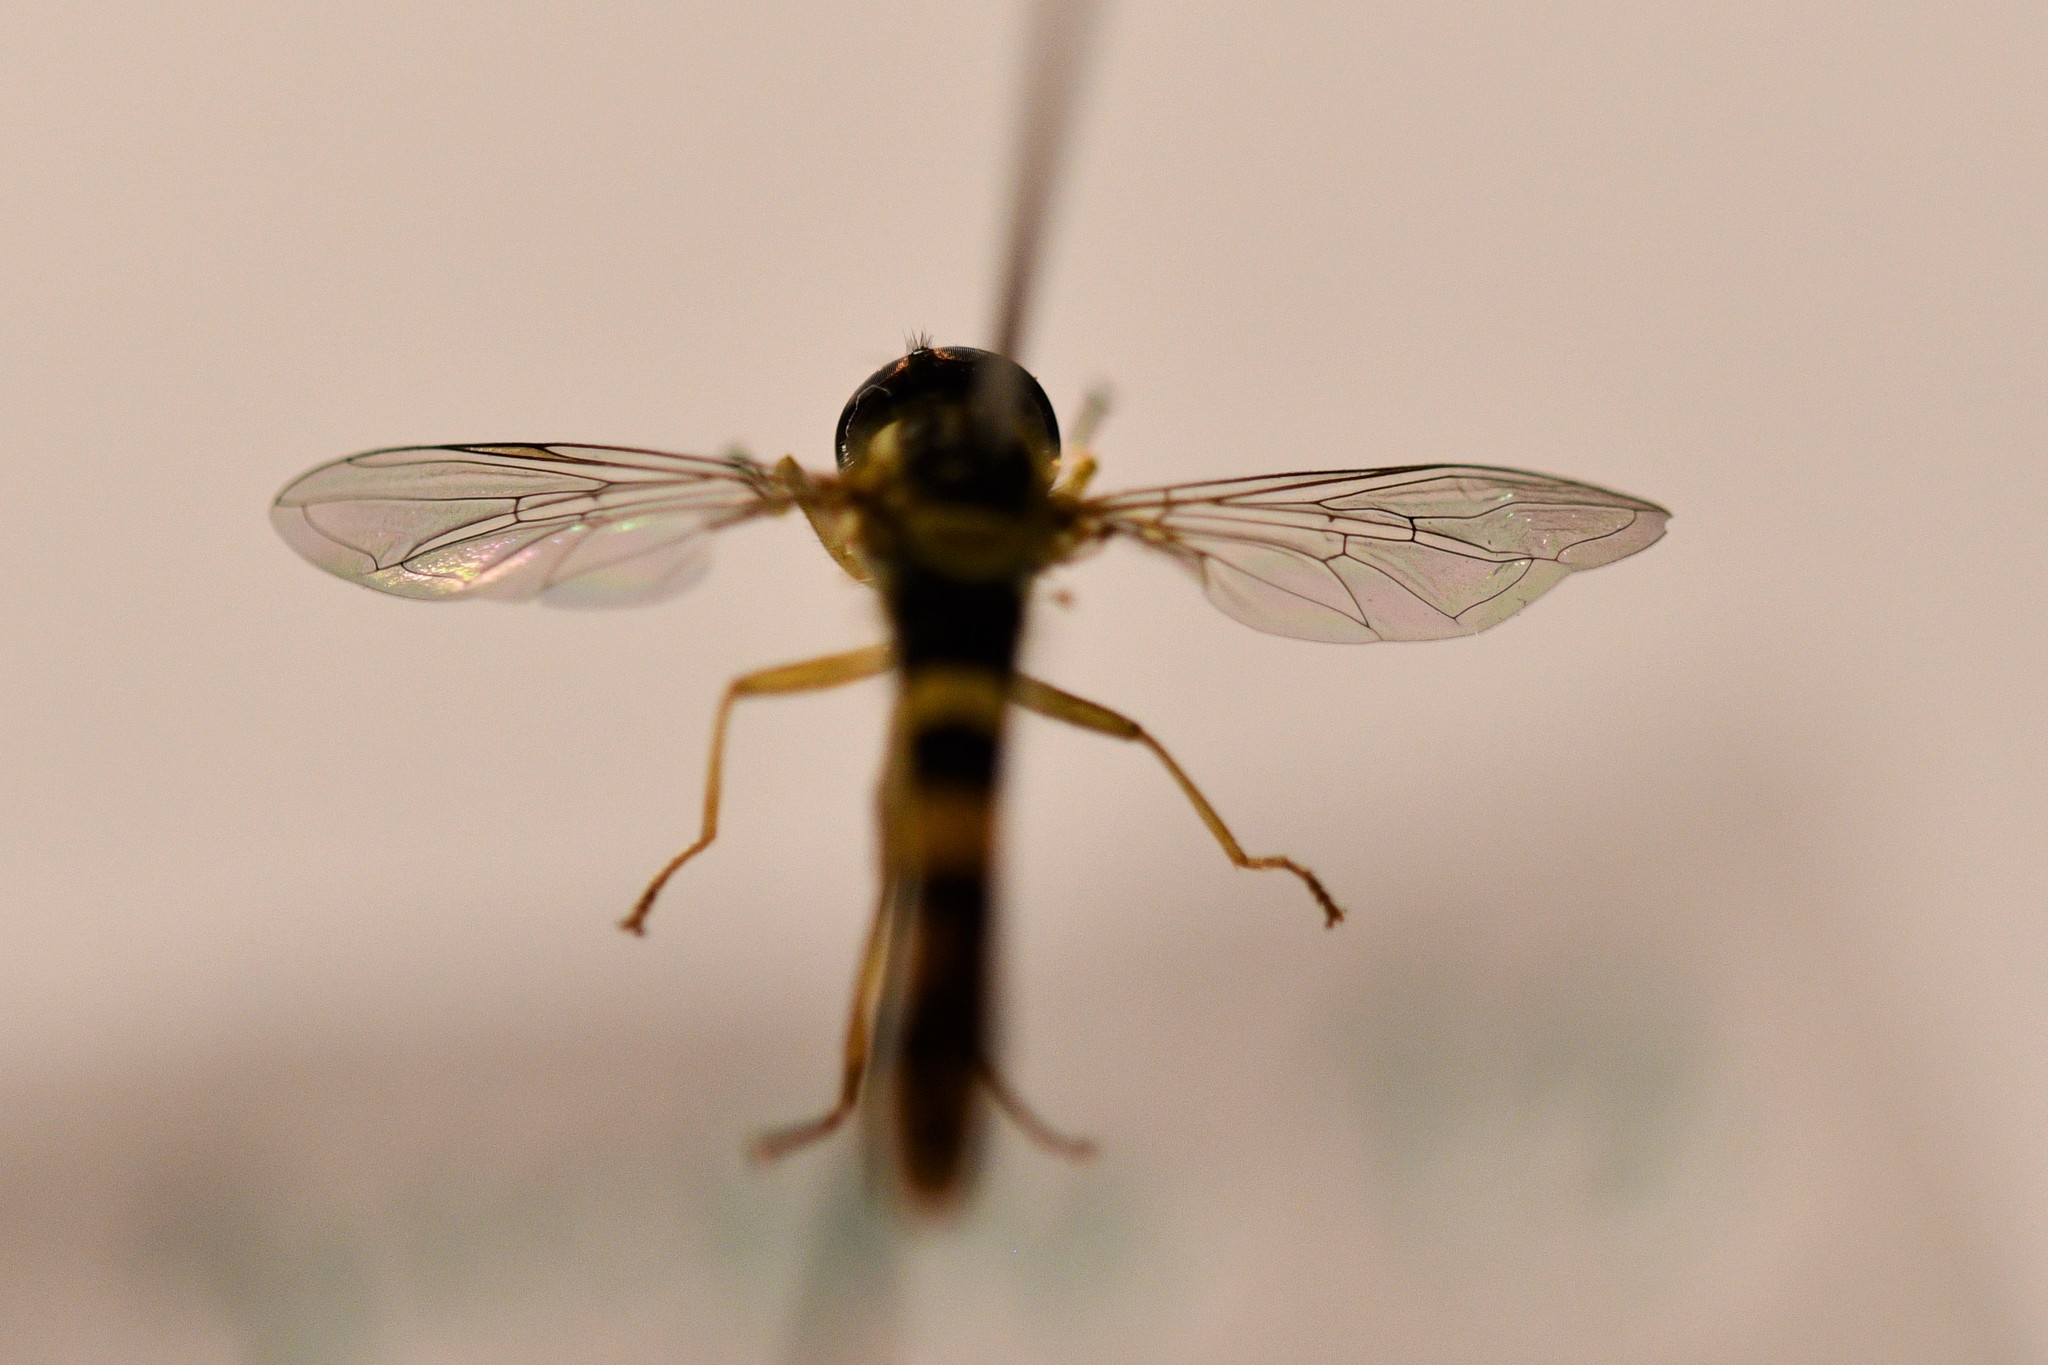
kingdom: Animalia
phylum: Arthropoda
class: Insecta
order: Diptera
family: Syrphidae
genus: Sphaerophoria
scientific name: Sphaerophoria scripta
